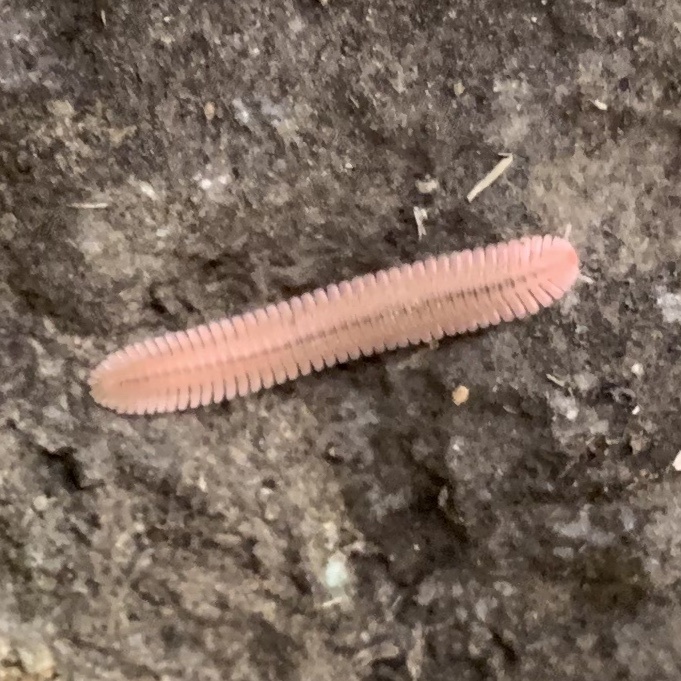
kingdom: Animalia
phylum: Arthropoda
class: Diplopoda
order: Platydesmida
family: Andrognathidae
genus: Brachycybe
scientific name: Brachycybe lecontii
